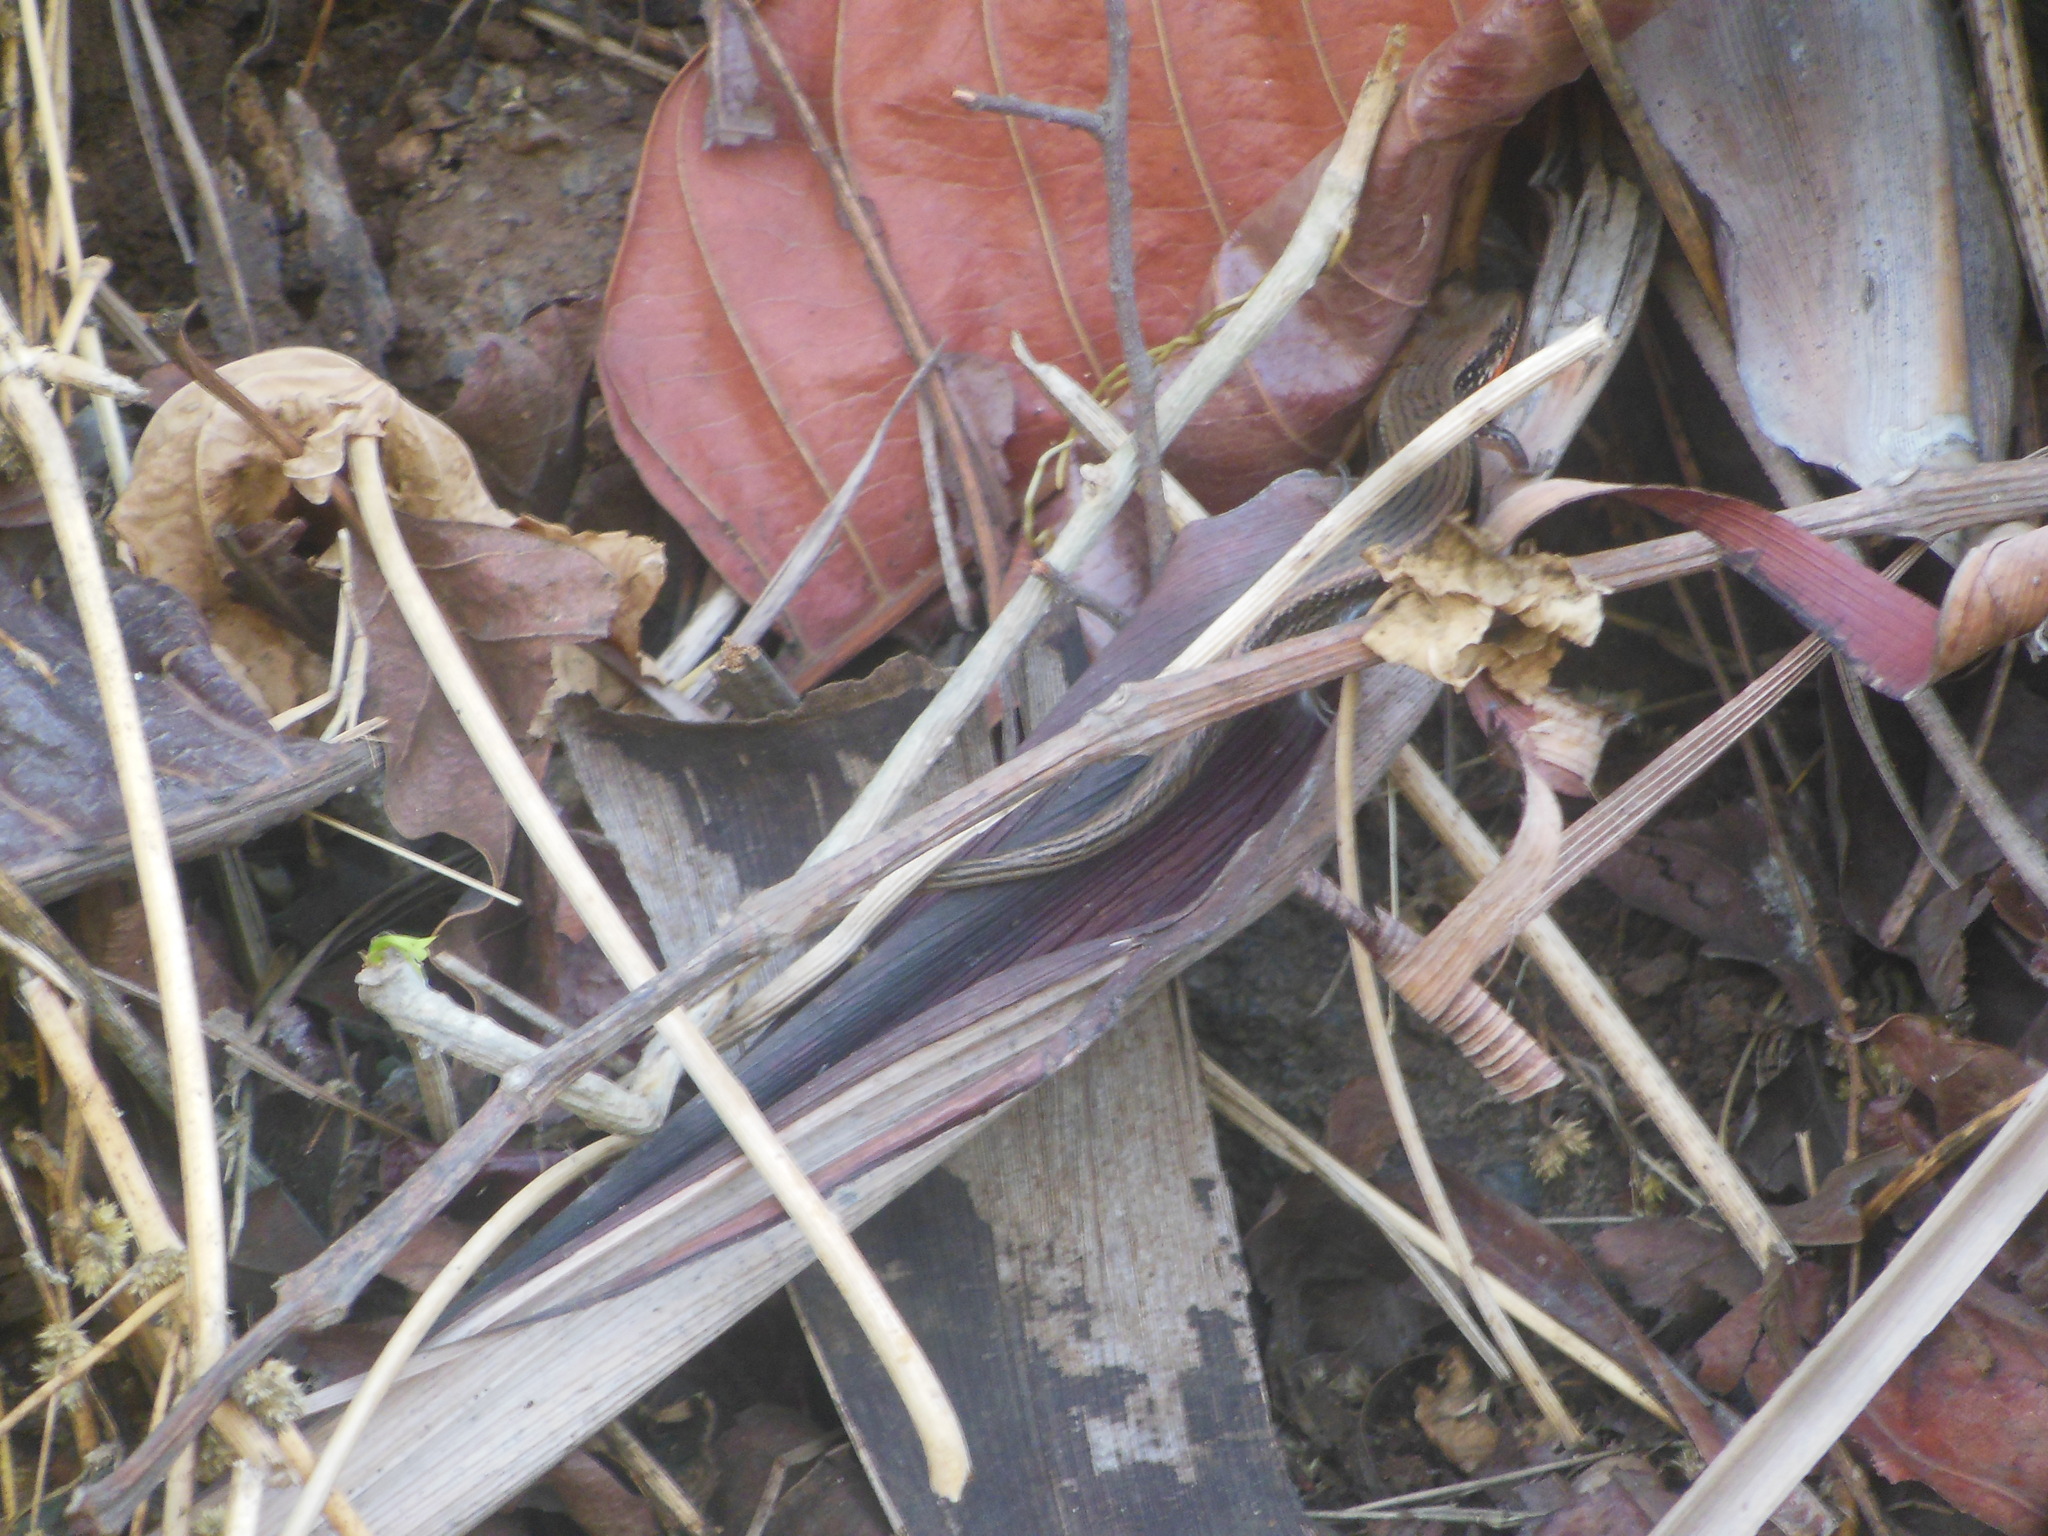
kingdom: Animalia
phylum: Chordata
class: Squamata
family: Scincidae
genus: Eutropis
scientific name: Eutropis macularia
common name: Bronze mabuya
